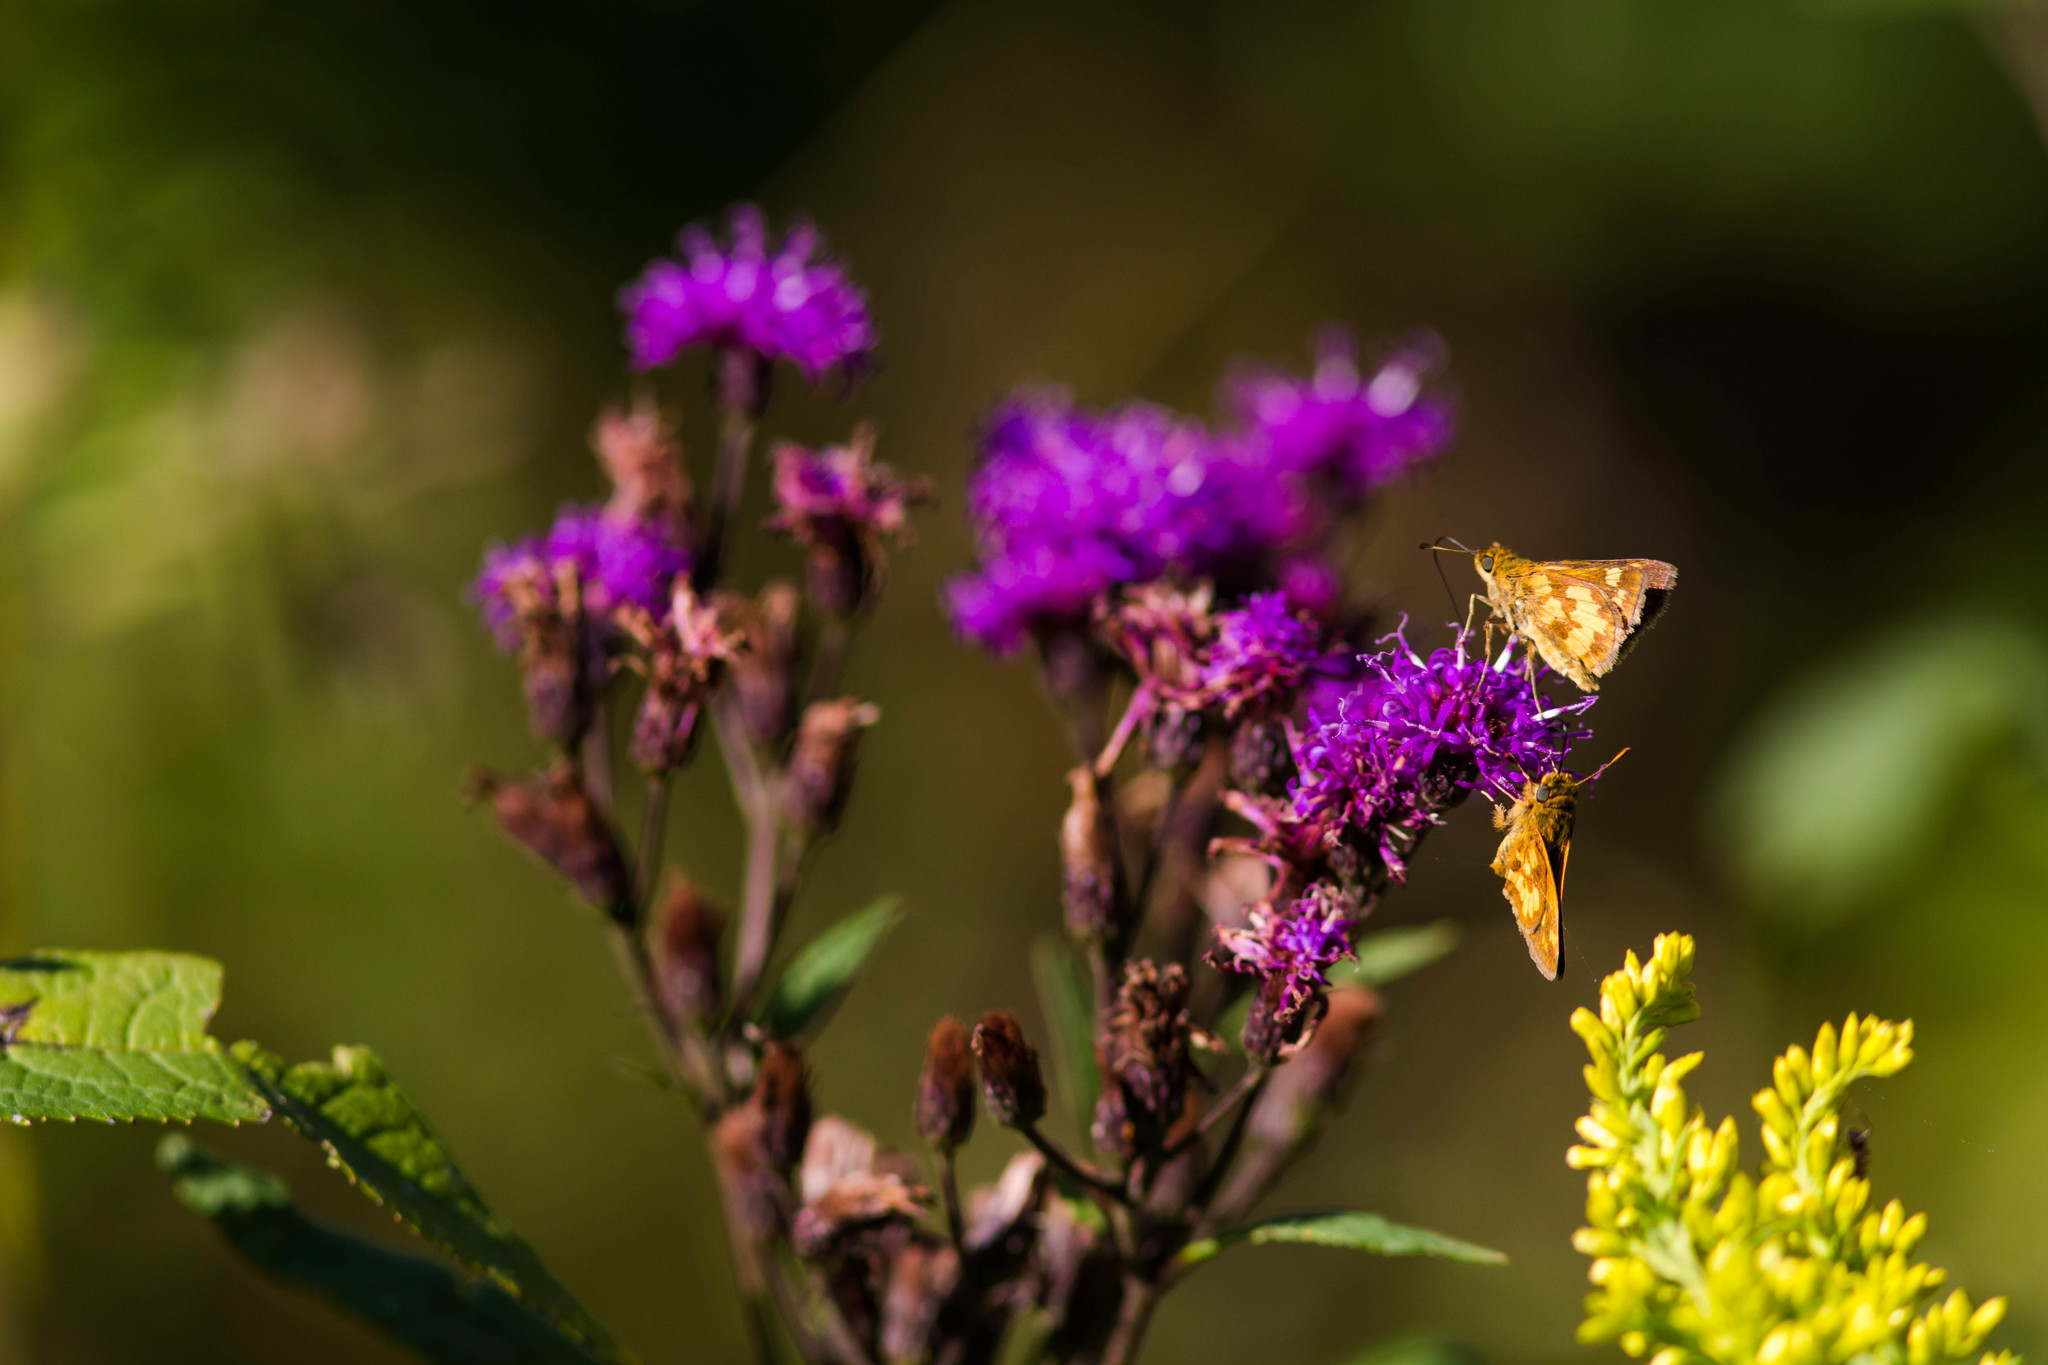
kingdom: Animalia
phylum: Arthropoda
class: Insecta
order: Lepidoptera
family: Hesperiidae
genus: Polites
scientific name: Polites coras
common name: Peck's skipper
